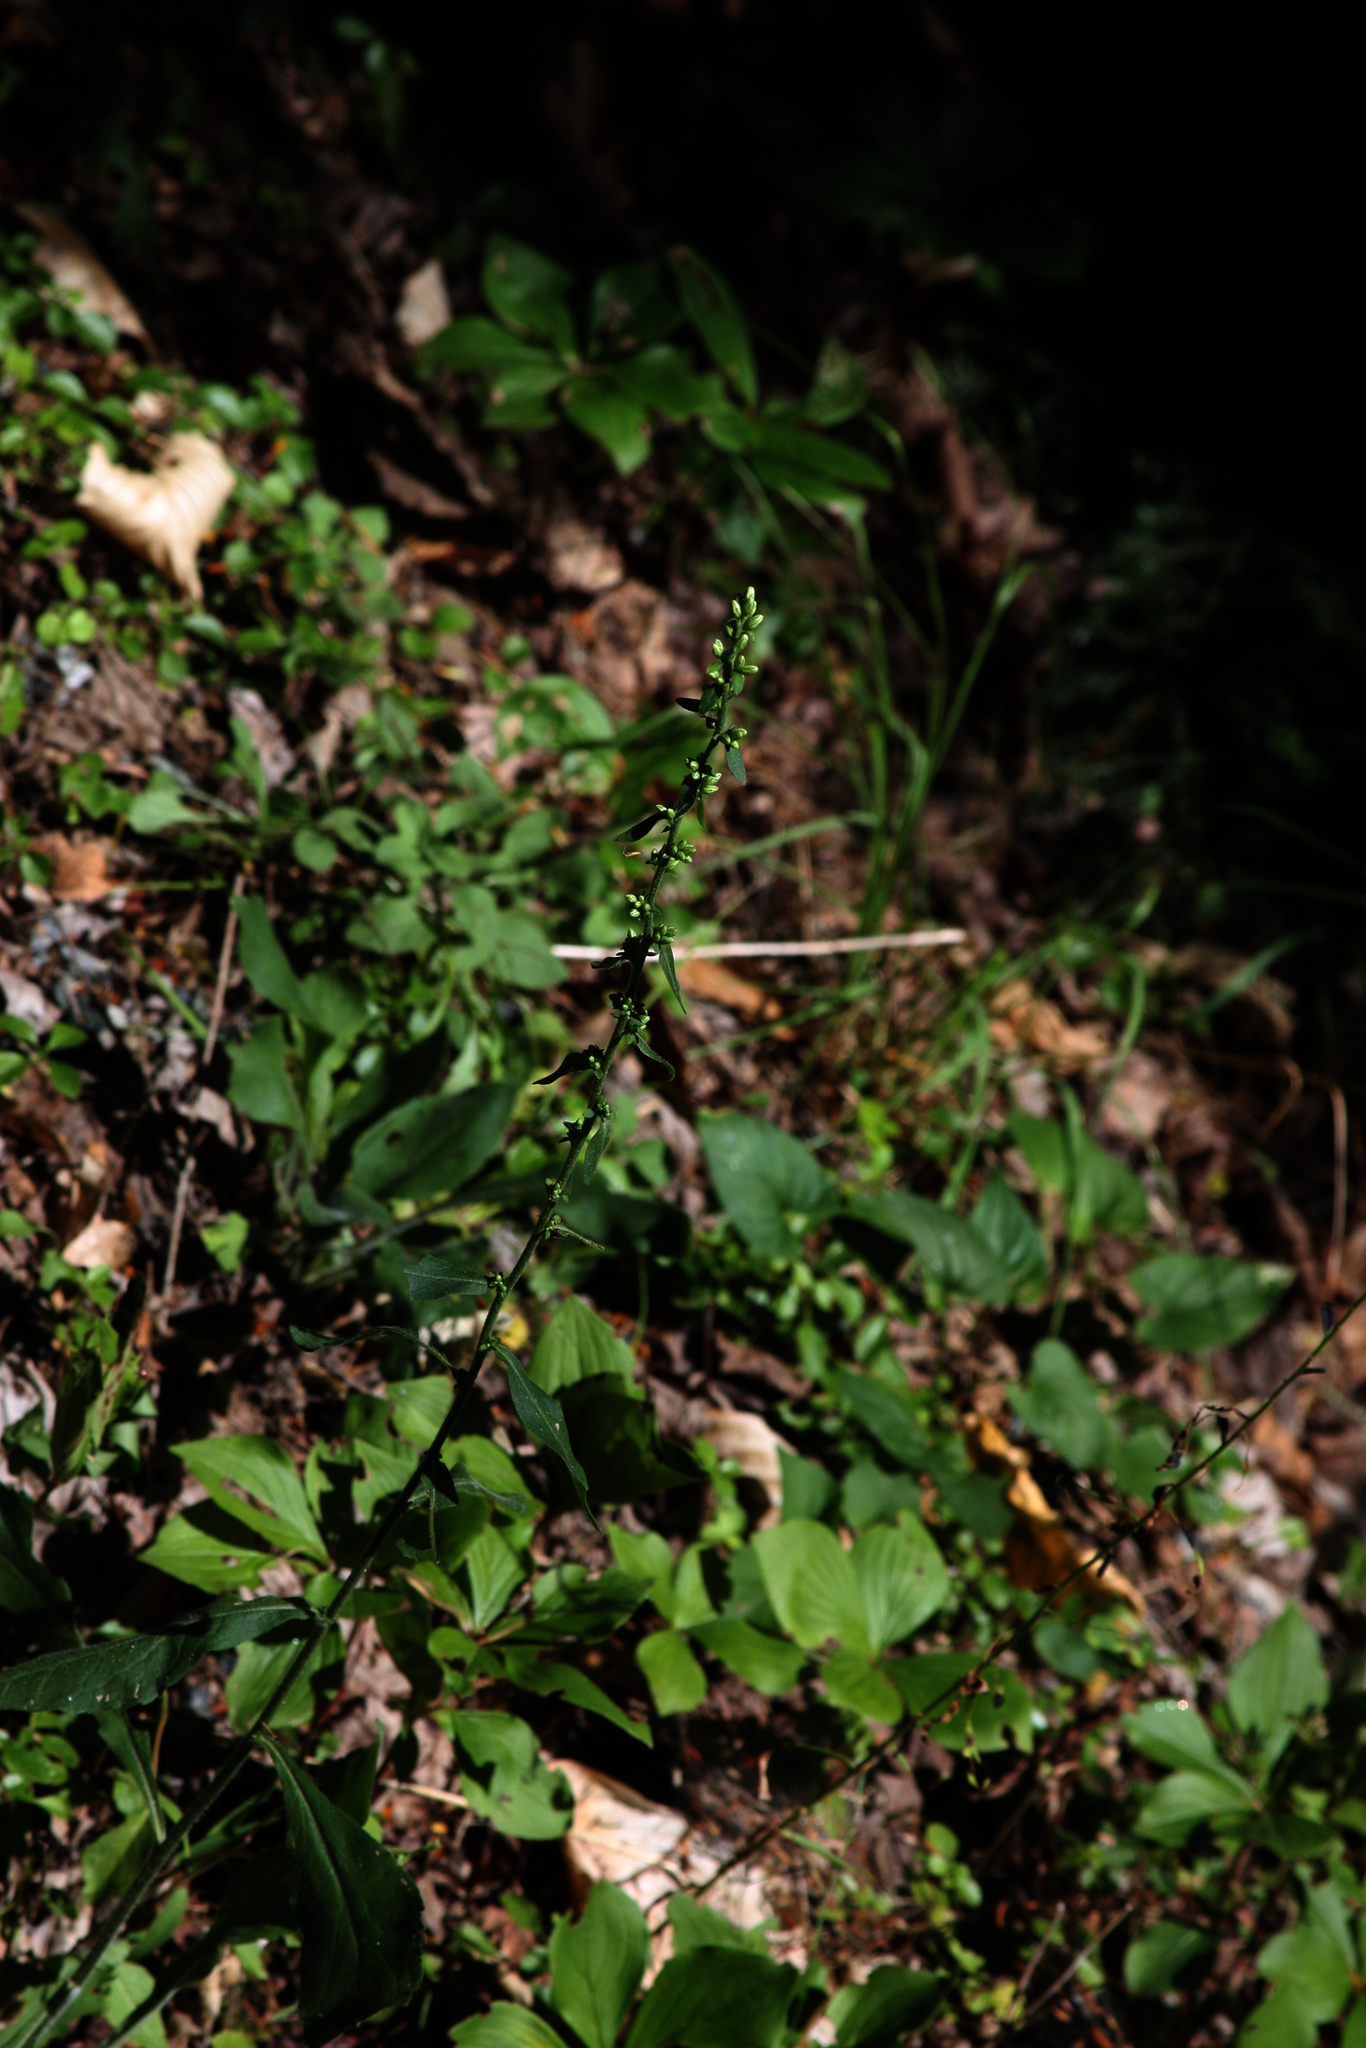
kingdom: Plantae
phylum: Tracheophyta
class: Magnoliopsida
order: Asterales
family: Asteraceae
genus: Solidago
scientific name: Solidago bicolor
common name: Silverrod
